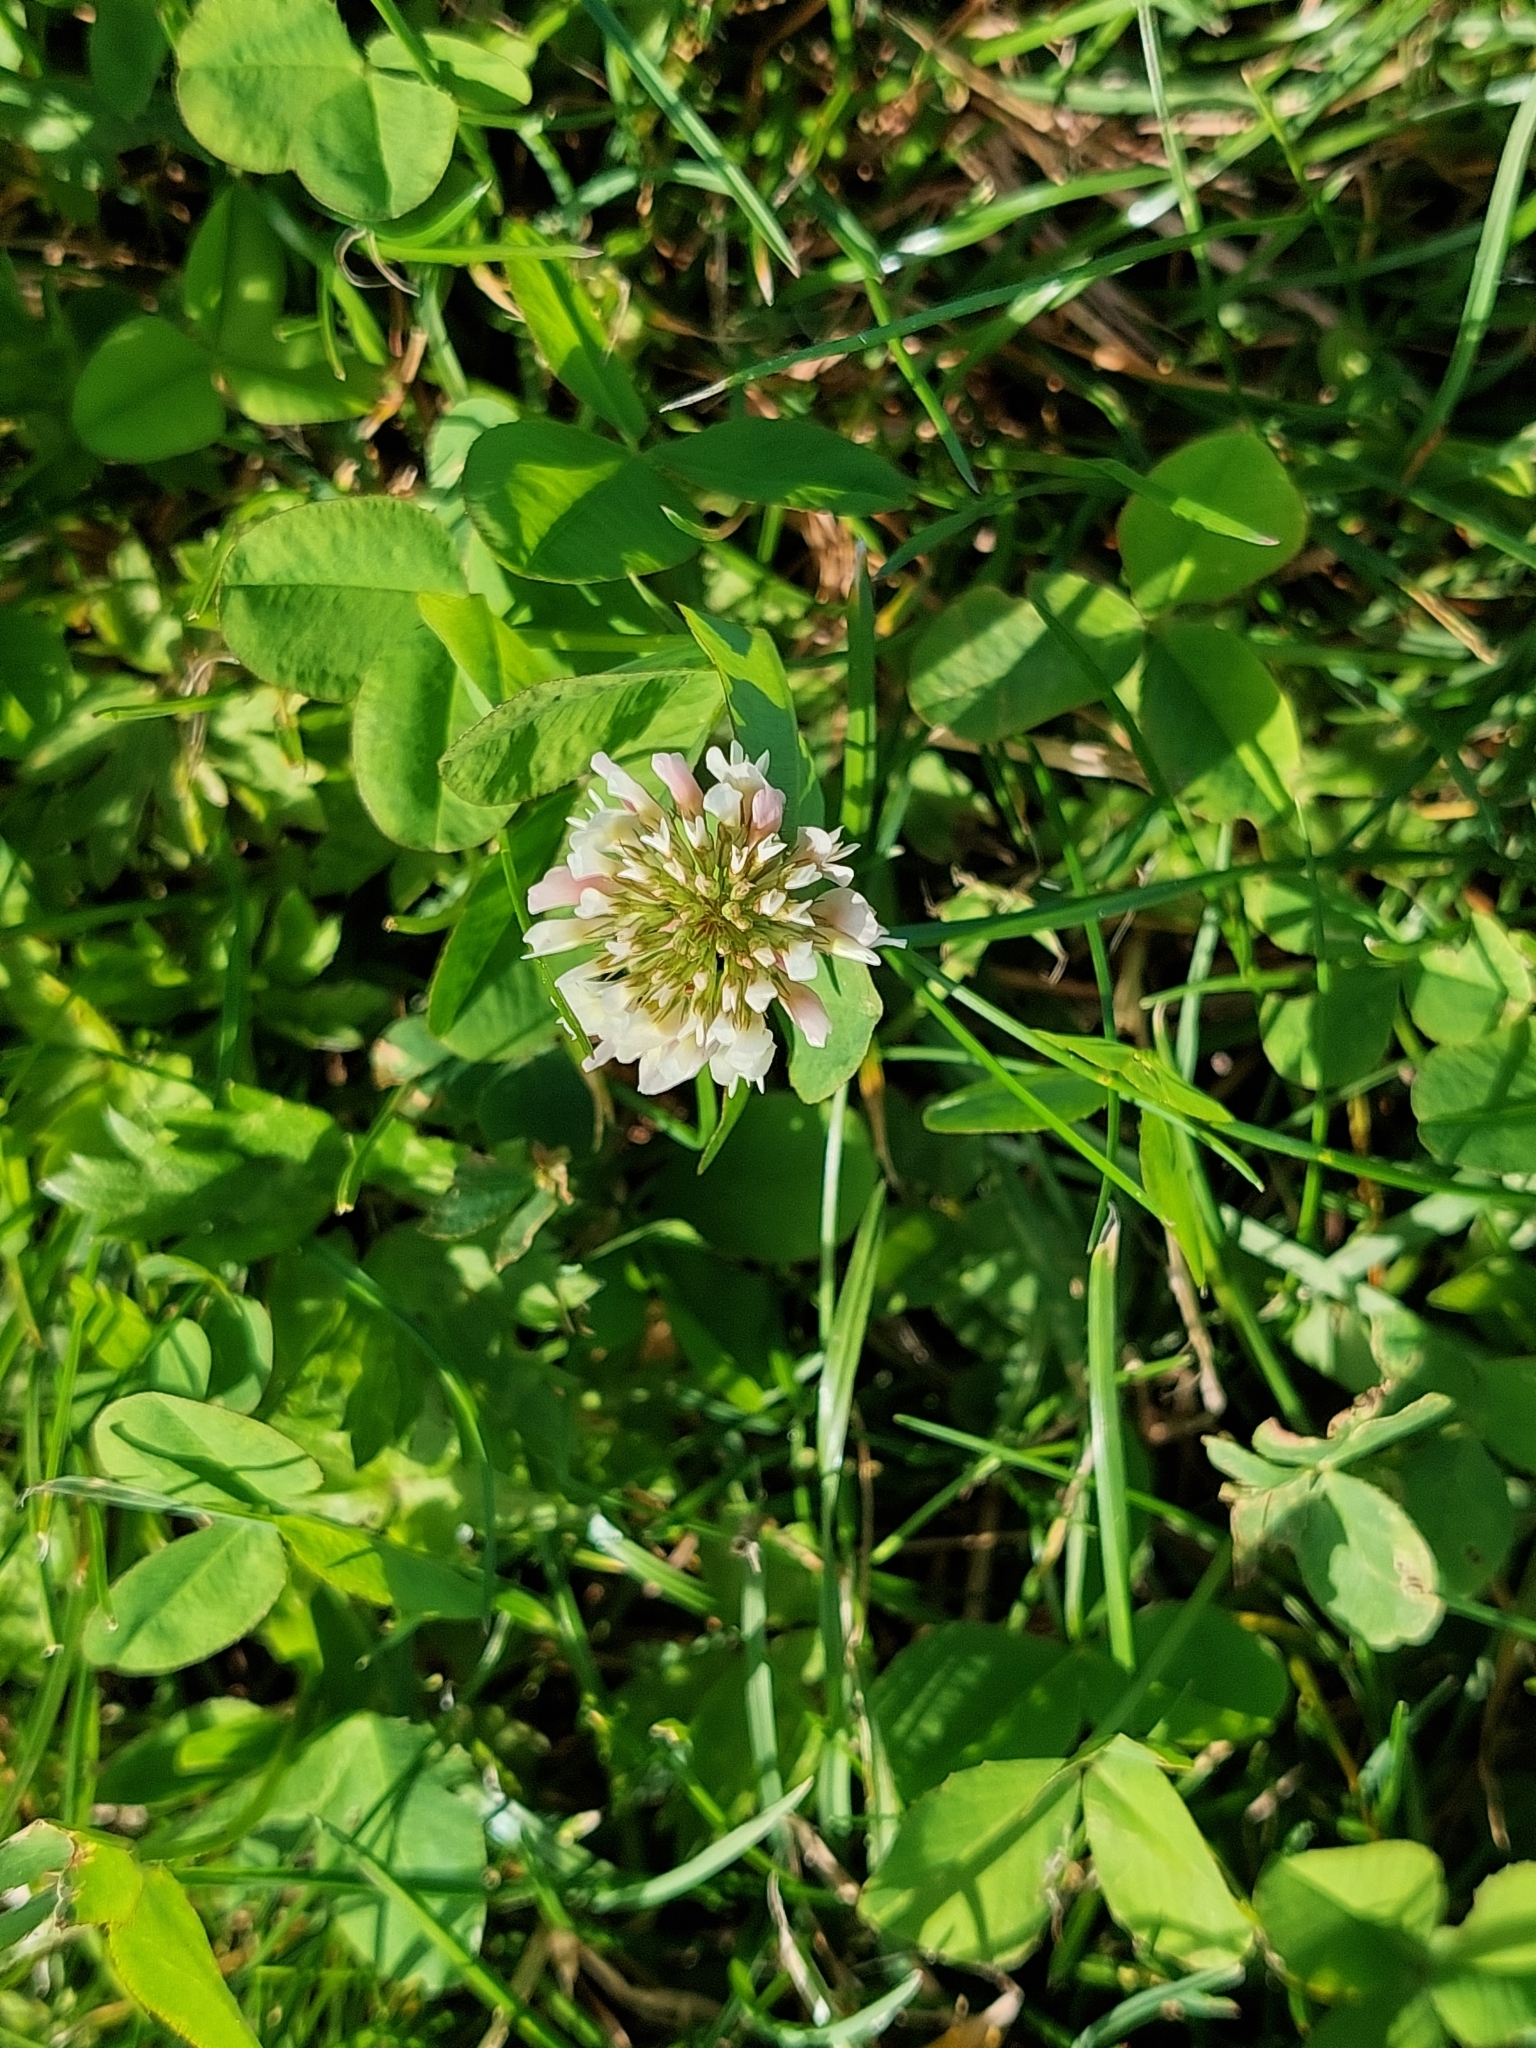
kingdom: Plantae
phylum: Tracheophyta
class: Magnoliopsida
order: Fabales
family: Fabaceae
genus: Trifolium
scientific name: Trifolium repens
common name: White clover
